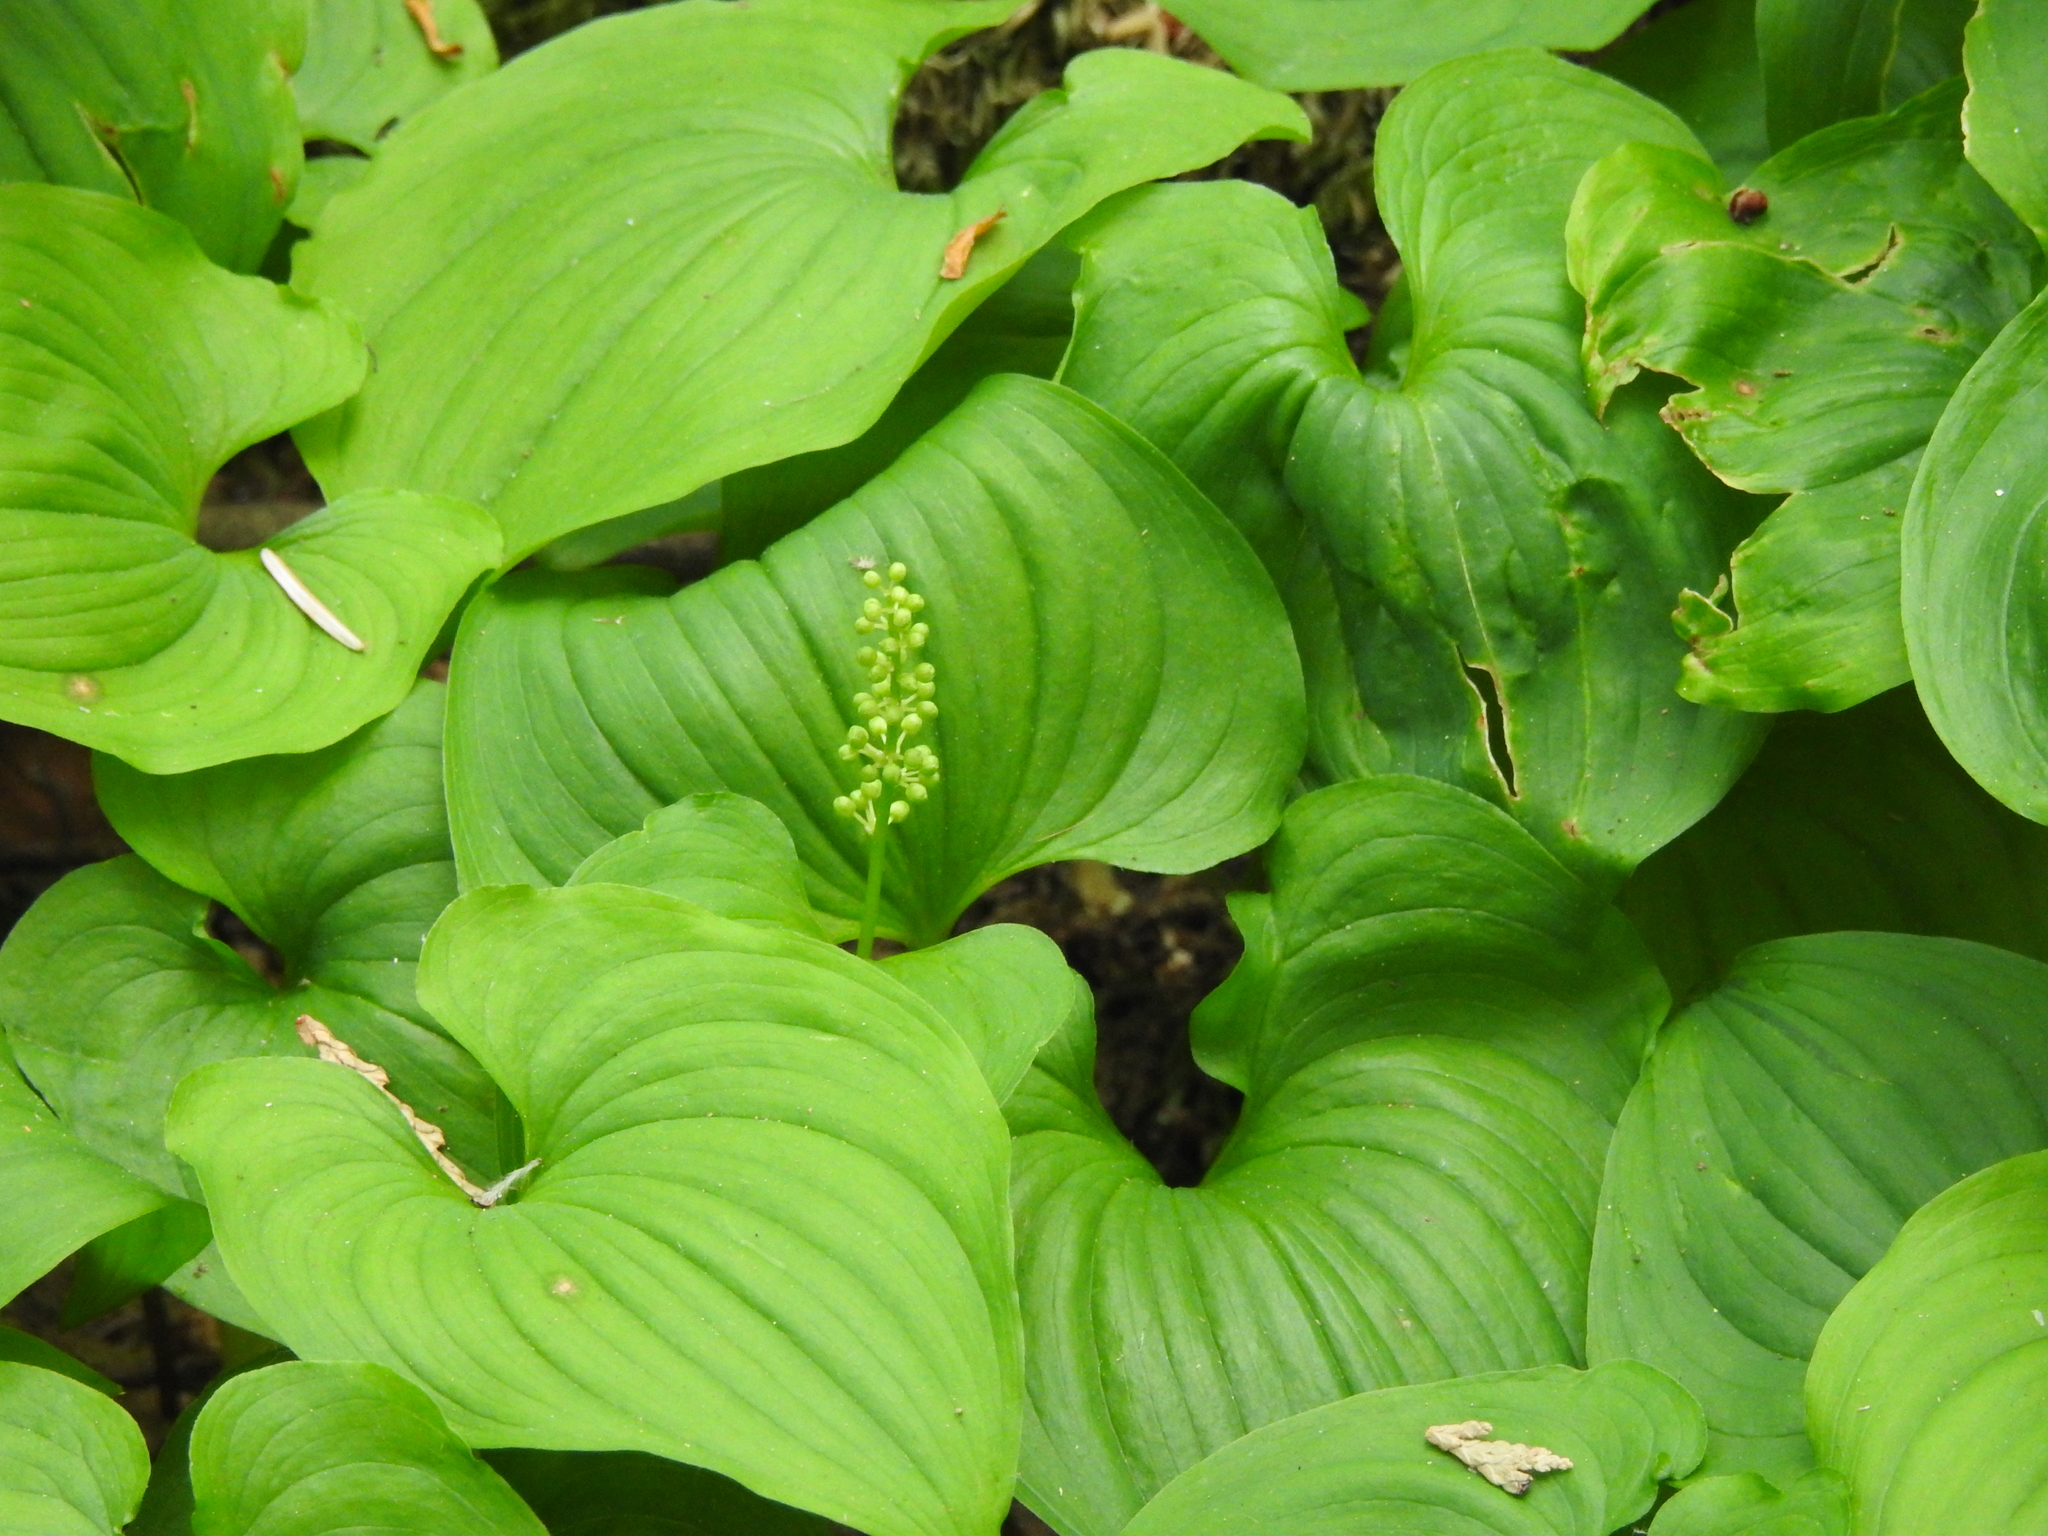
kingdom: Plantae
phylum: Tracheophyta
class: Liliopsida
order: Asparagales
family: Asparagaceae
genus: Maianthemum
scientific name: Maianthemum dilatatum
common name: False lily-of-the-valley
